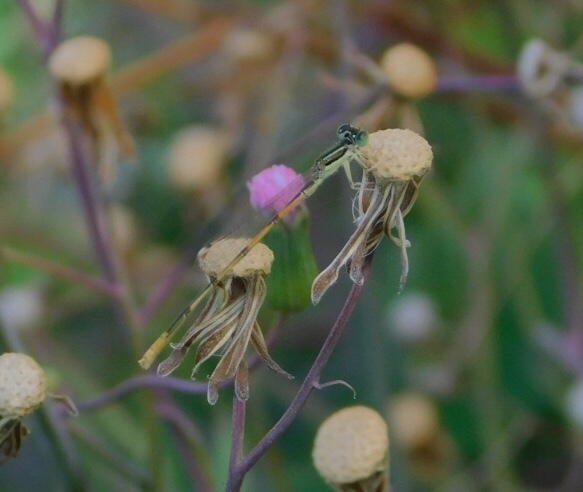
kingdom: Animalia
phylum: Arthropoda
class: Insecta
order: Odonata
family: Coenagrionidae
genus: Ischnura
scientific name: Ischnura hastata
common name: Citrine forktail
